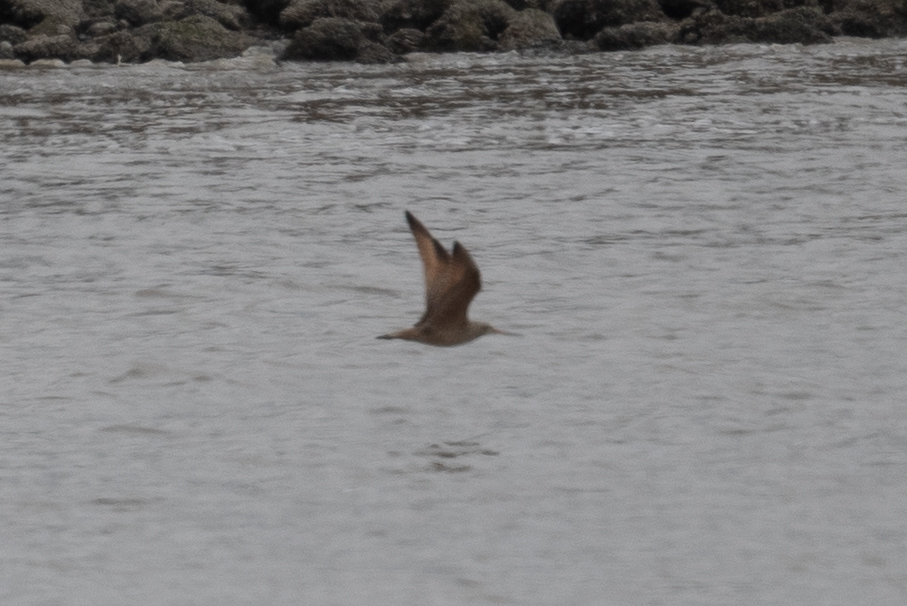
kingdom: Animalia
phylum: Chordata
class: Aves
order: Charadriiformes
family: Scolopacidae
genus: Limosa
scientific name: Limosa fedoa
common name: Marbled godwit
